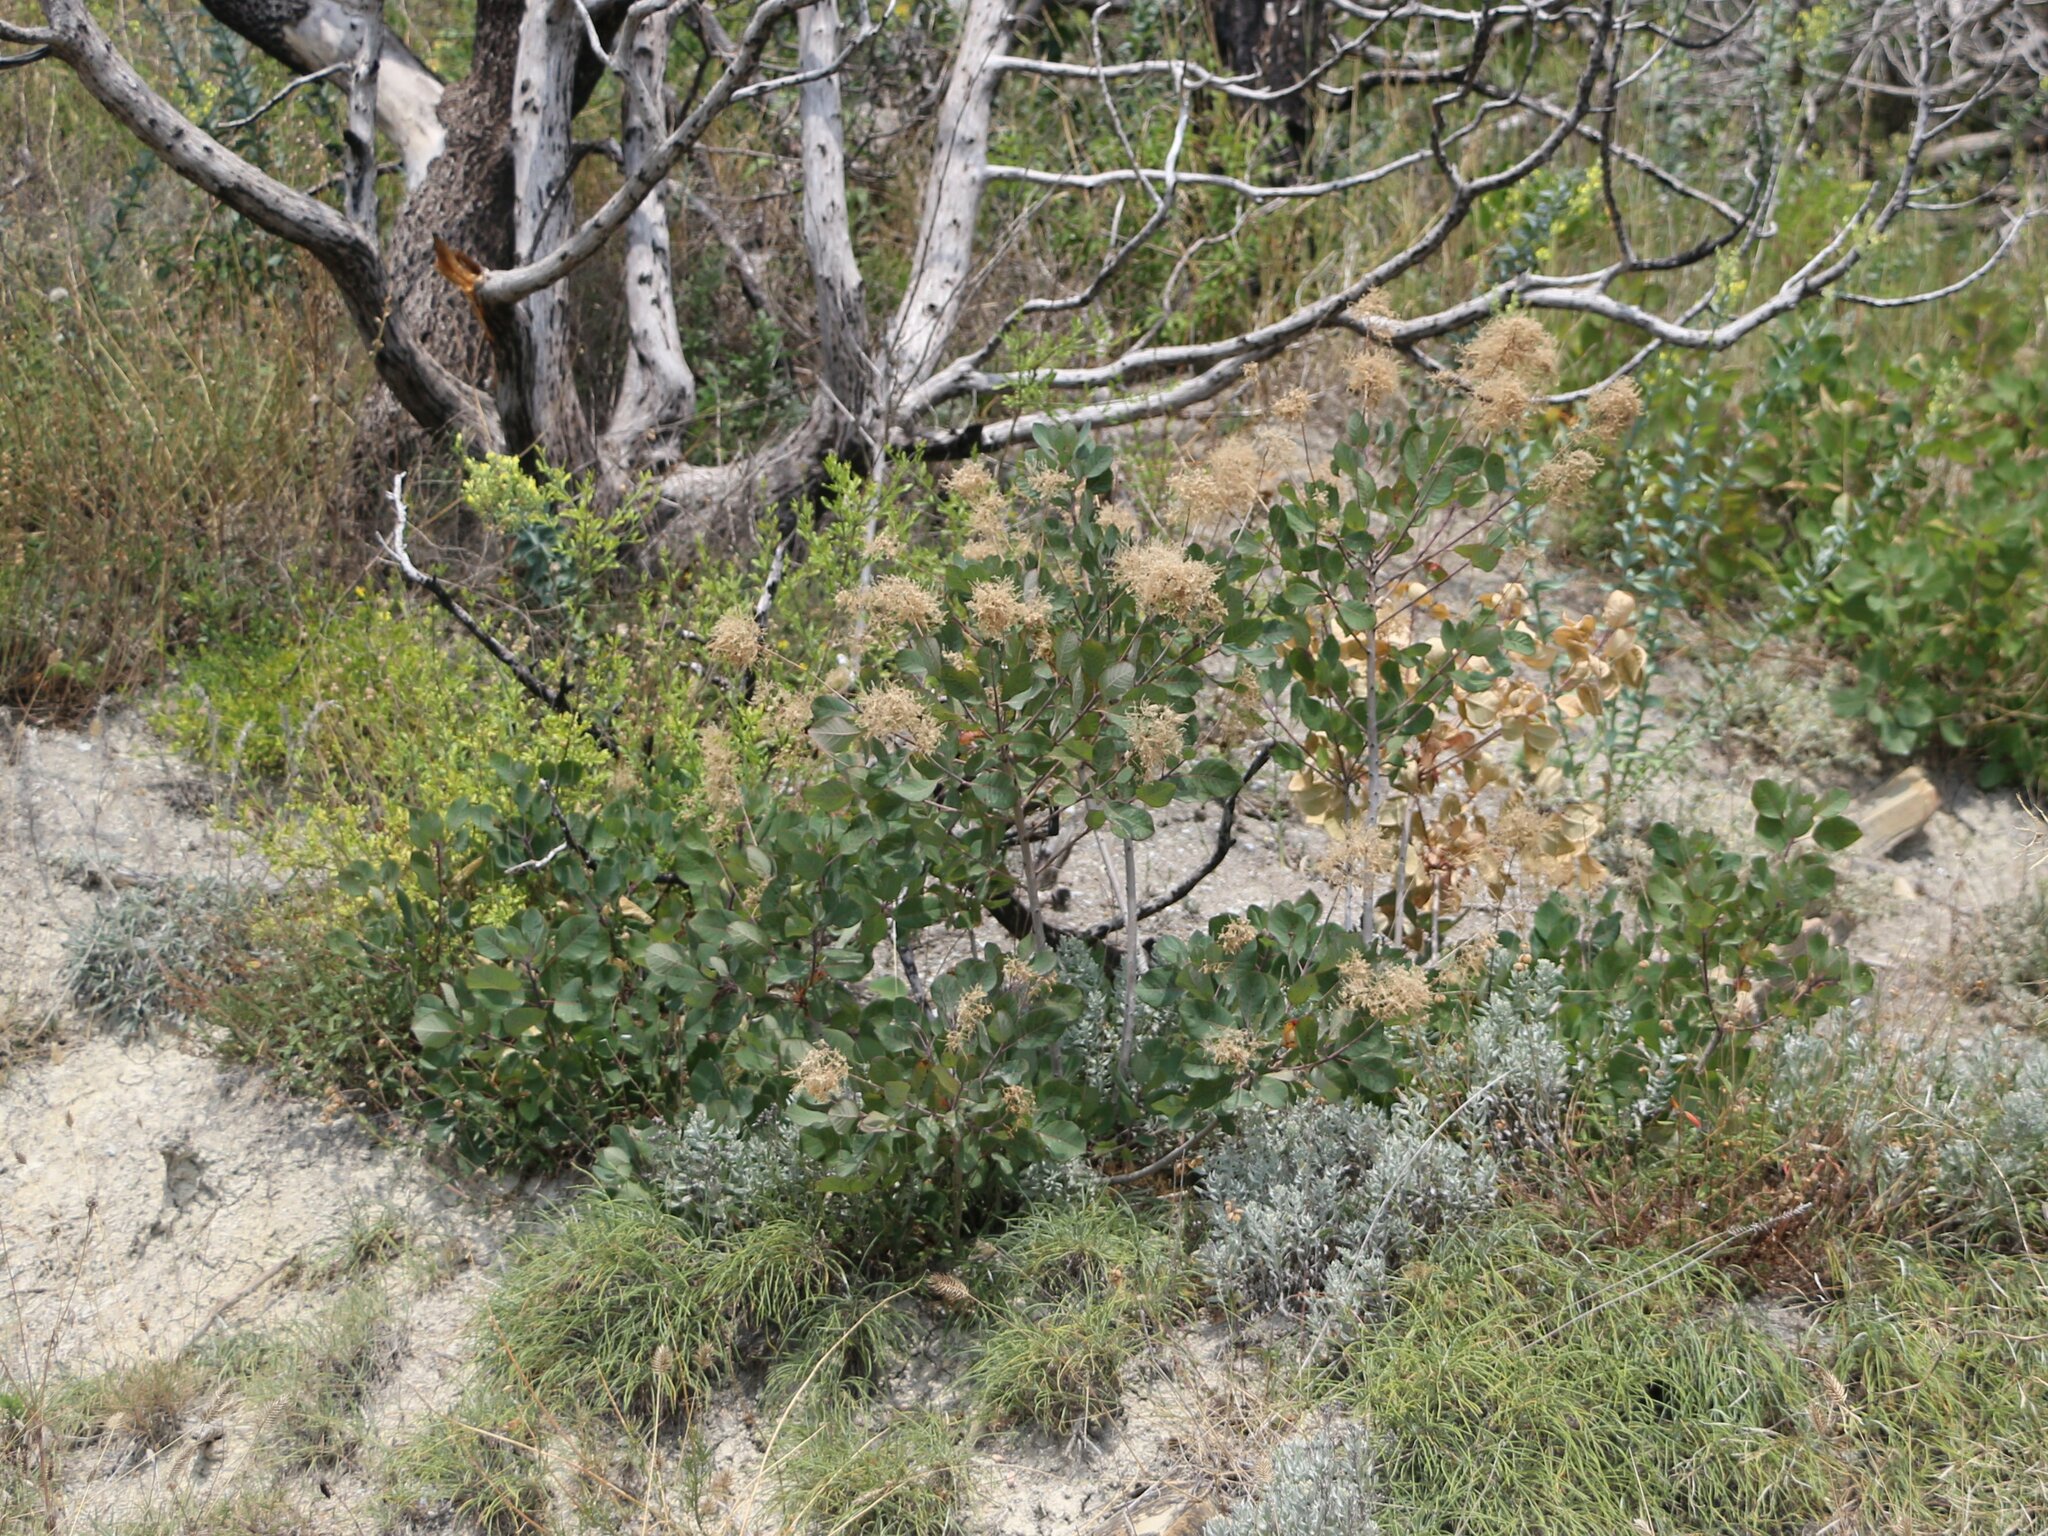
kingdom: Plantae
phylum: Tracheophyta
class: Magnoliopsida
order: Sapindales
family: Anacardiaceae
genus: Cotinus
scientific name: Cotinus coggygria
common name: Smoke-tree
